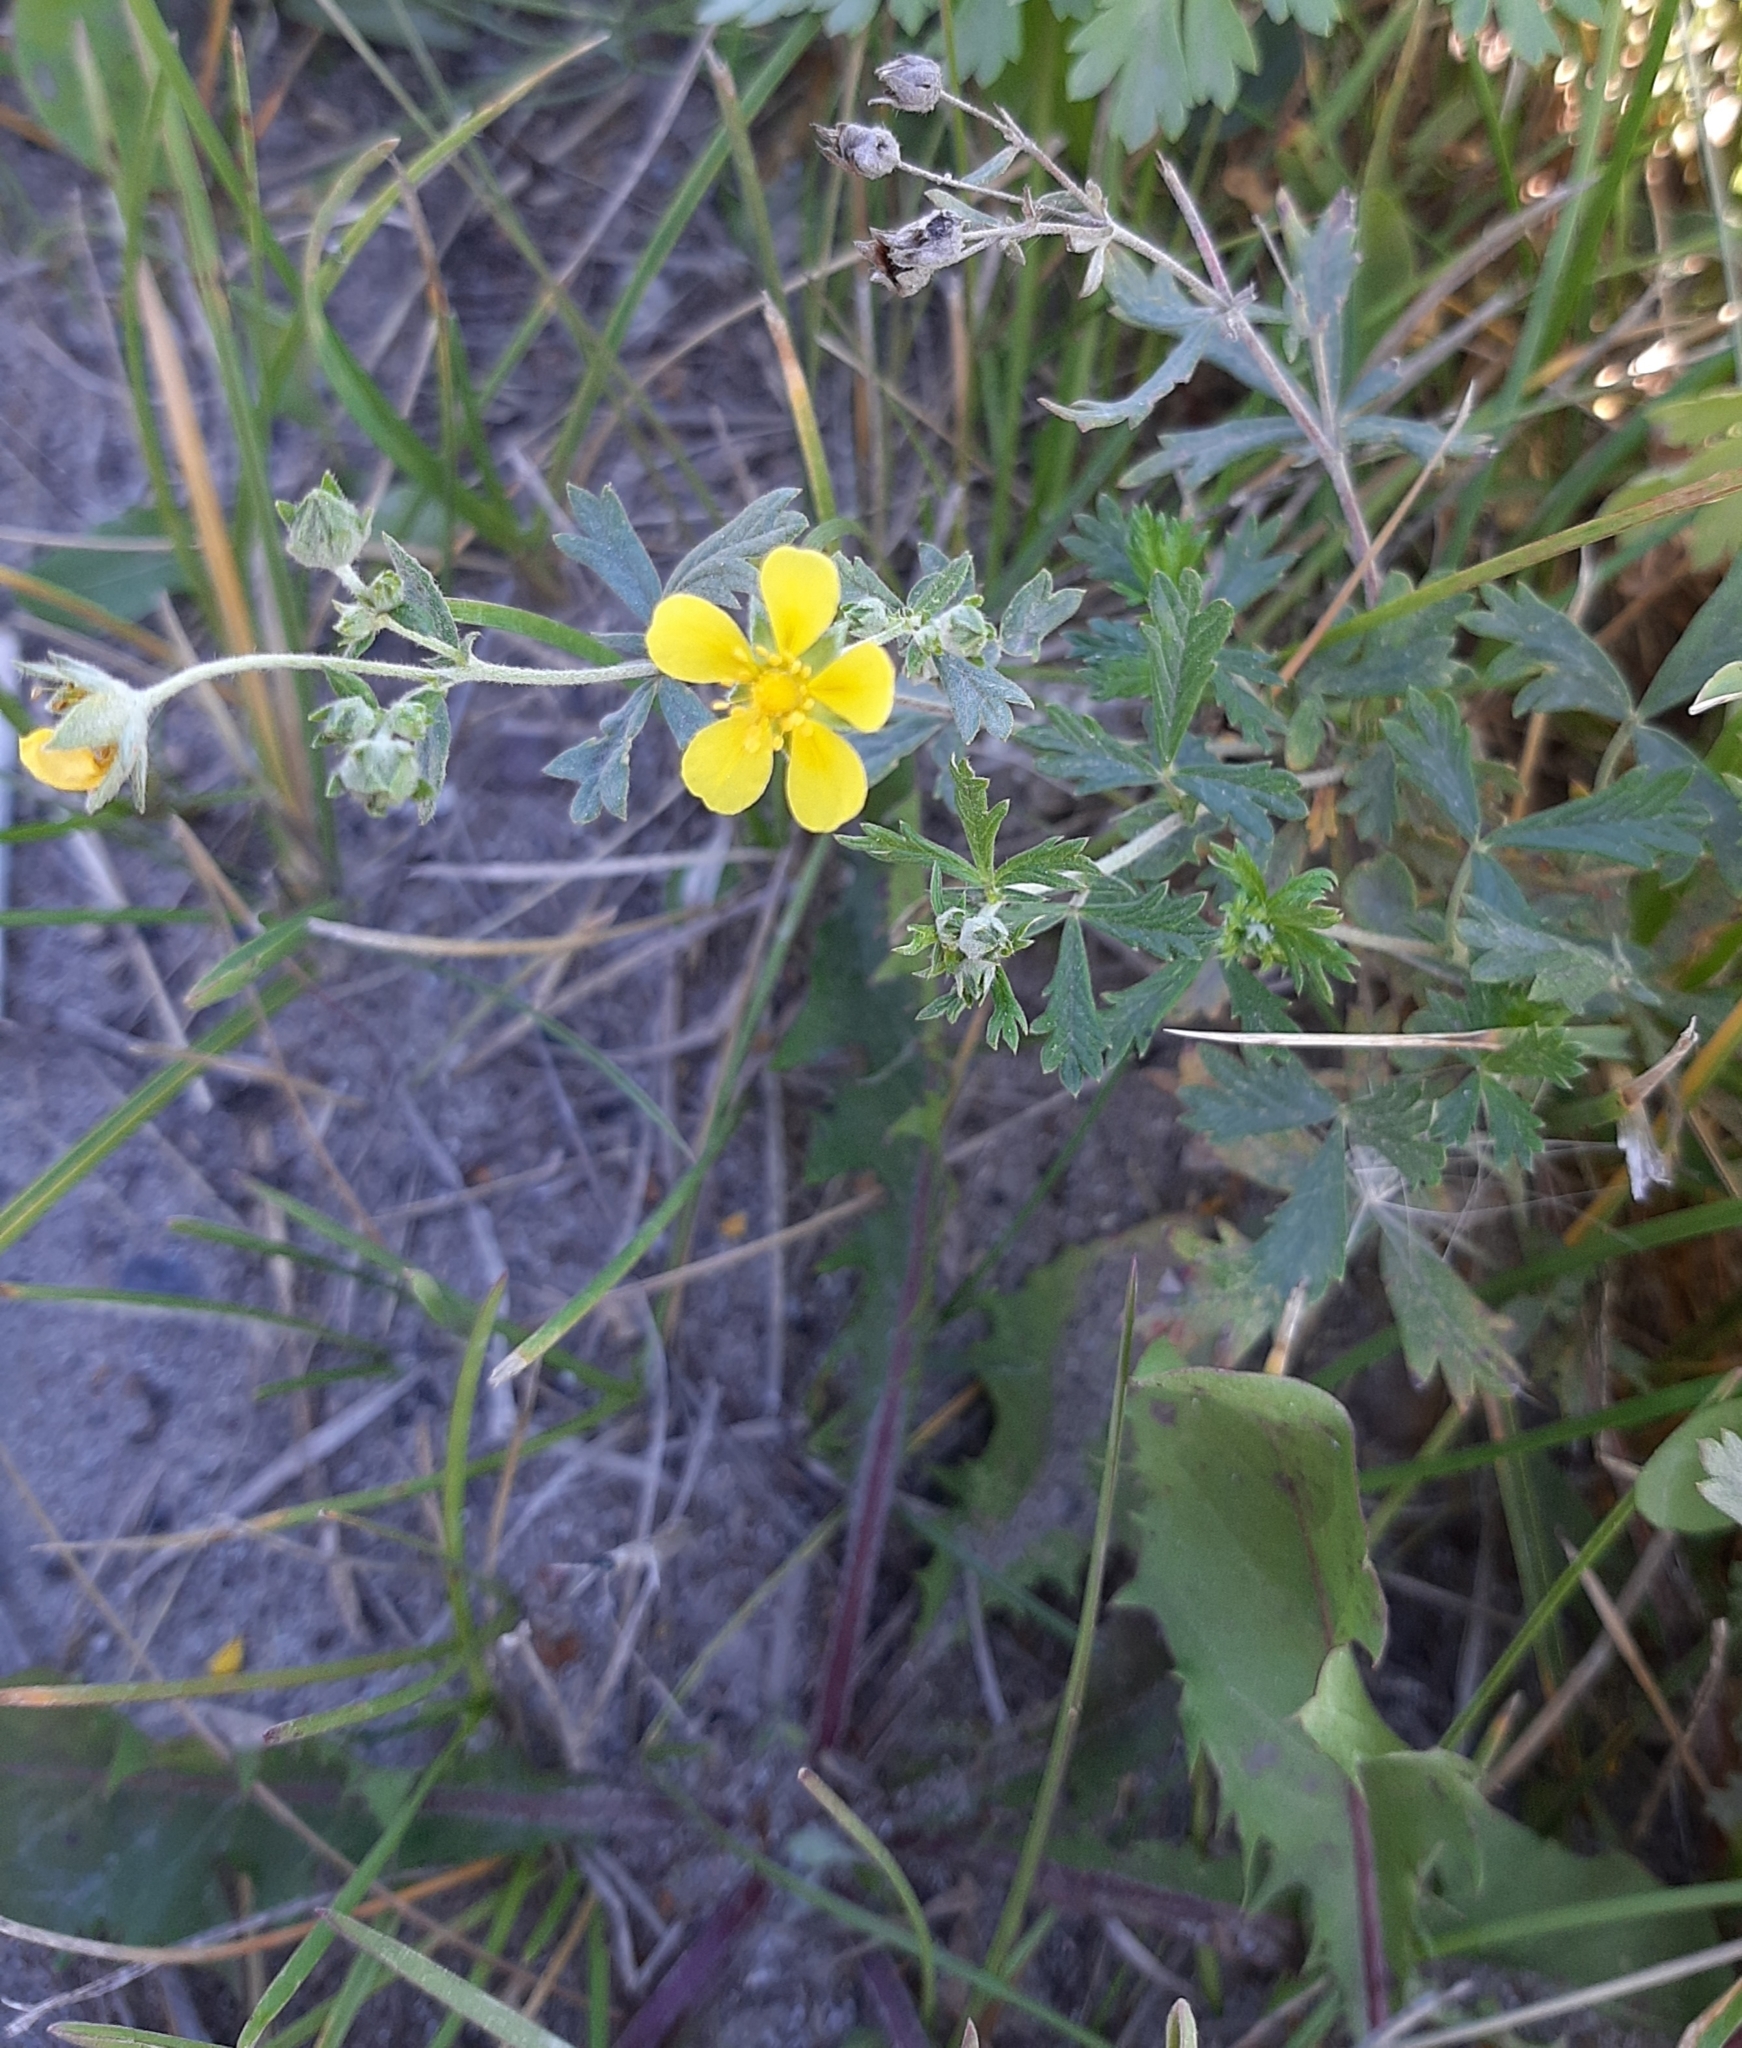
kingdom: Plantae
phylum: Tracheophyta
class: Magnoliopsida
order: Rosales
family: Rosaceae
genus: Potentilla
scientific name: Potentilla argentea
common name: Hoary cinquefoil
